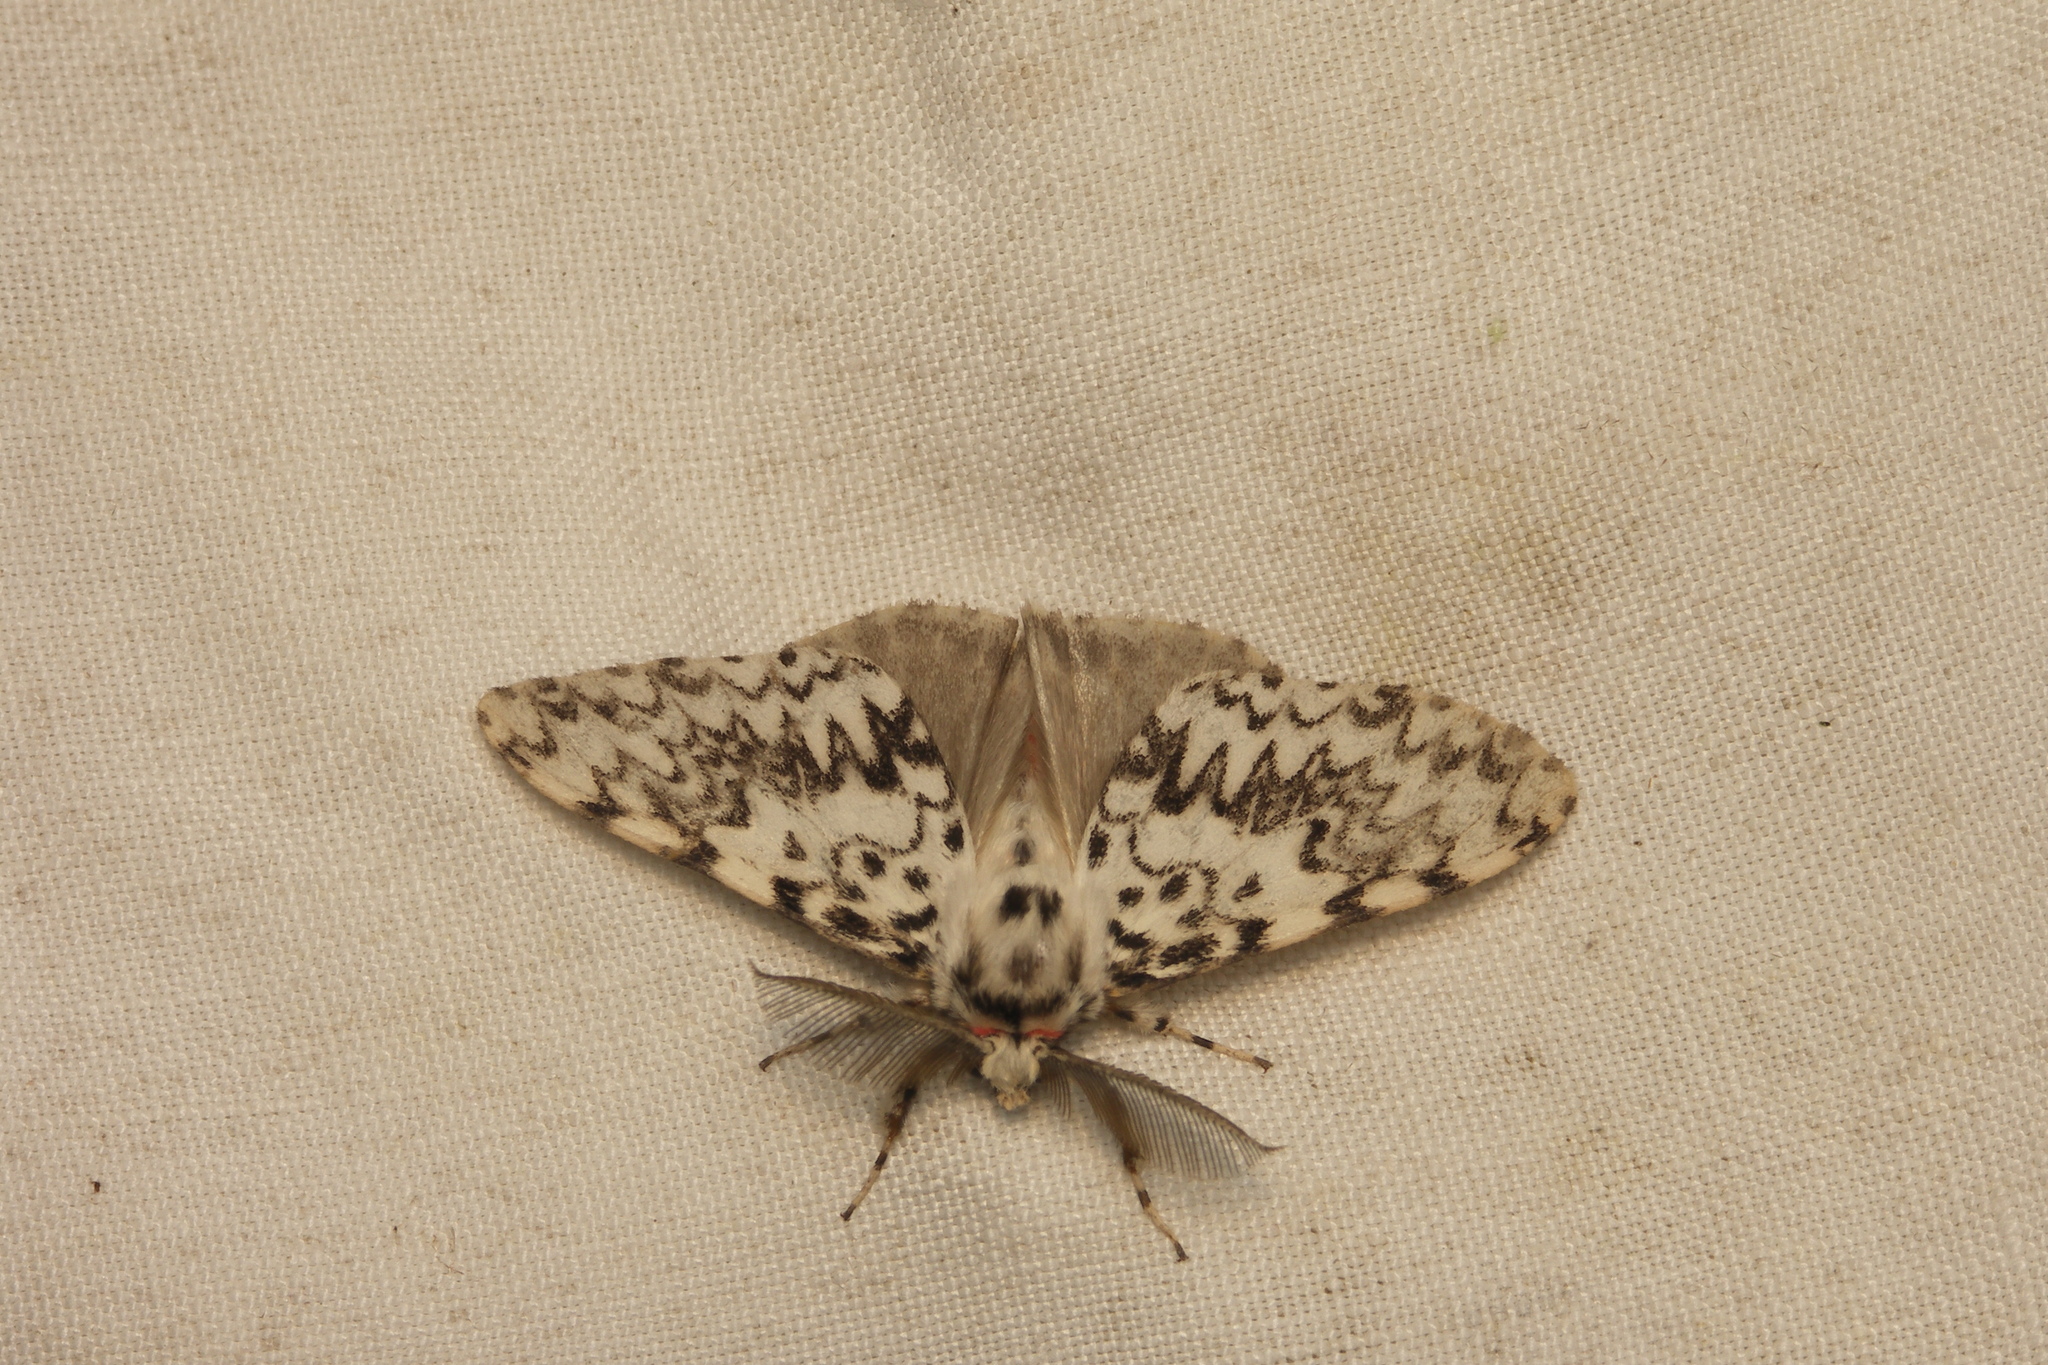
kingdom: Animalia
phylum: Arthropoda
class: Insecta
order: Lepidoptera
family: Erebidae
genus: Lymantria
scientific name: Lymantria monacha
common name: Black arches
